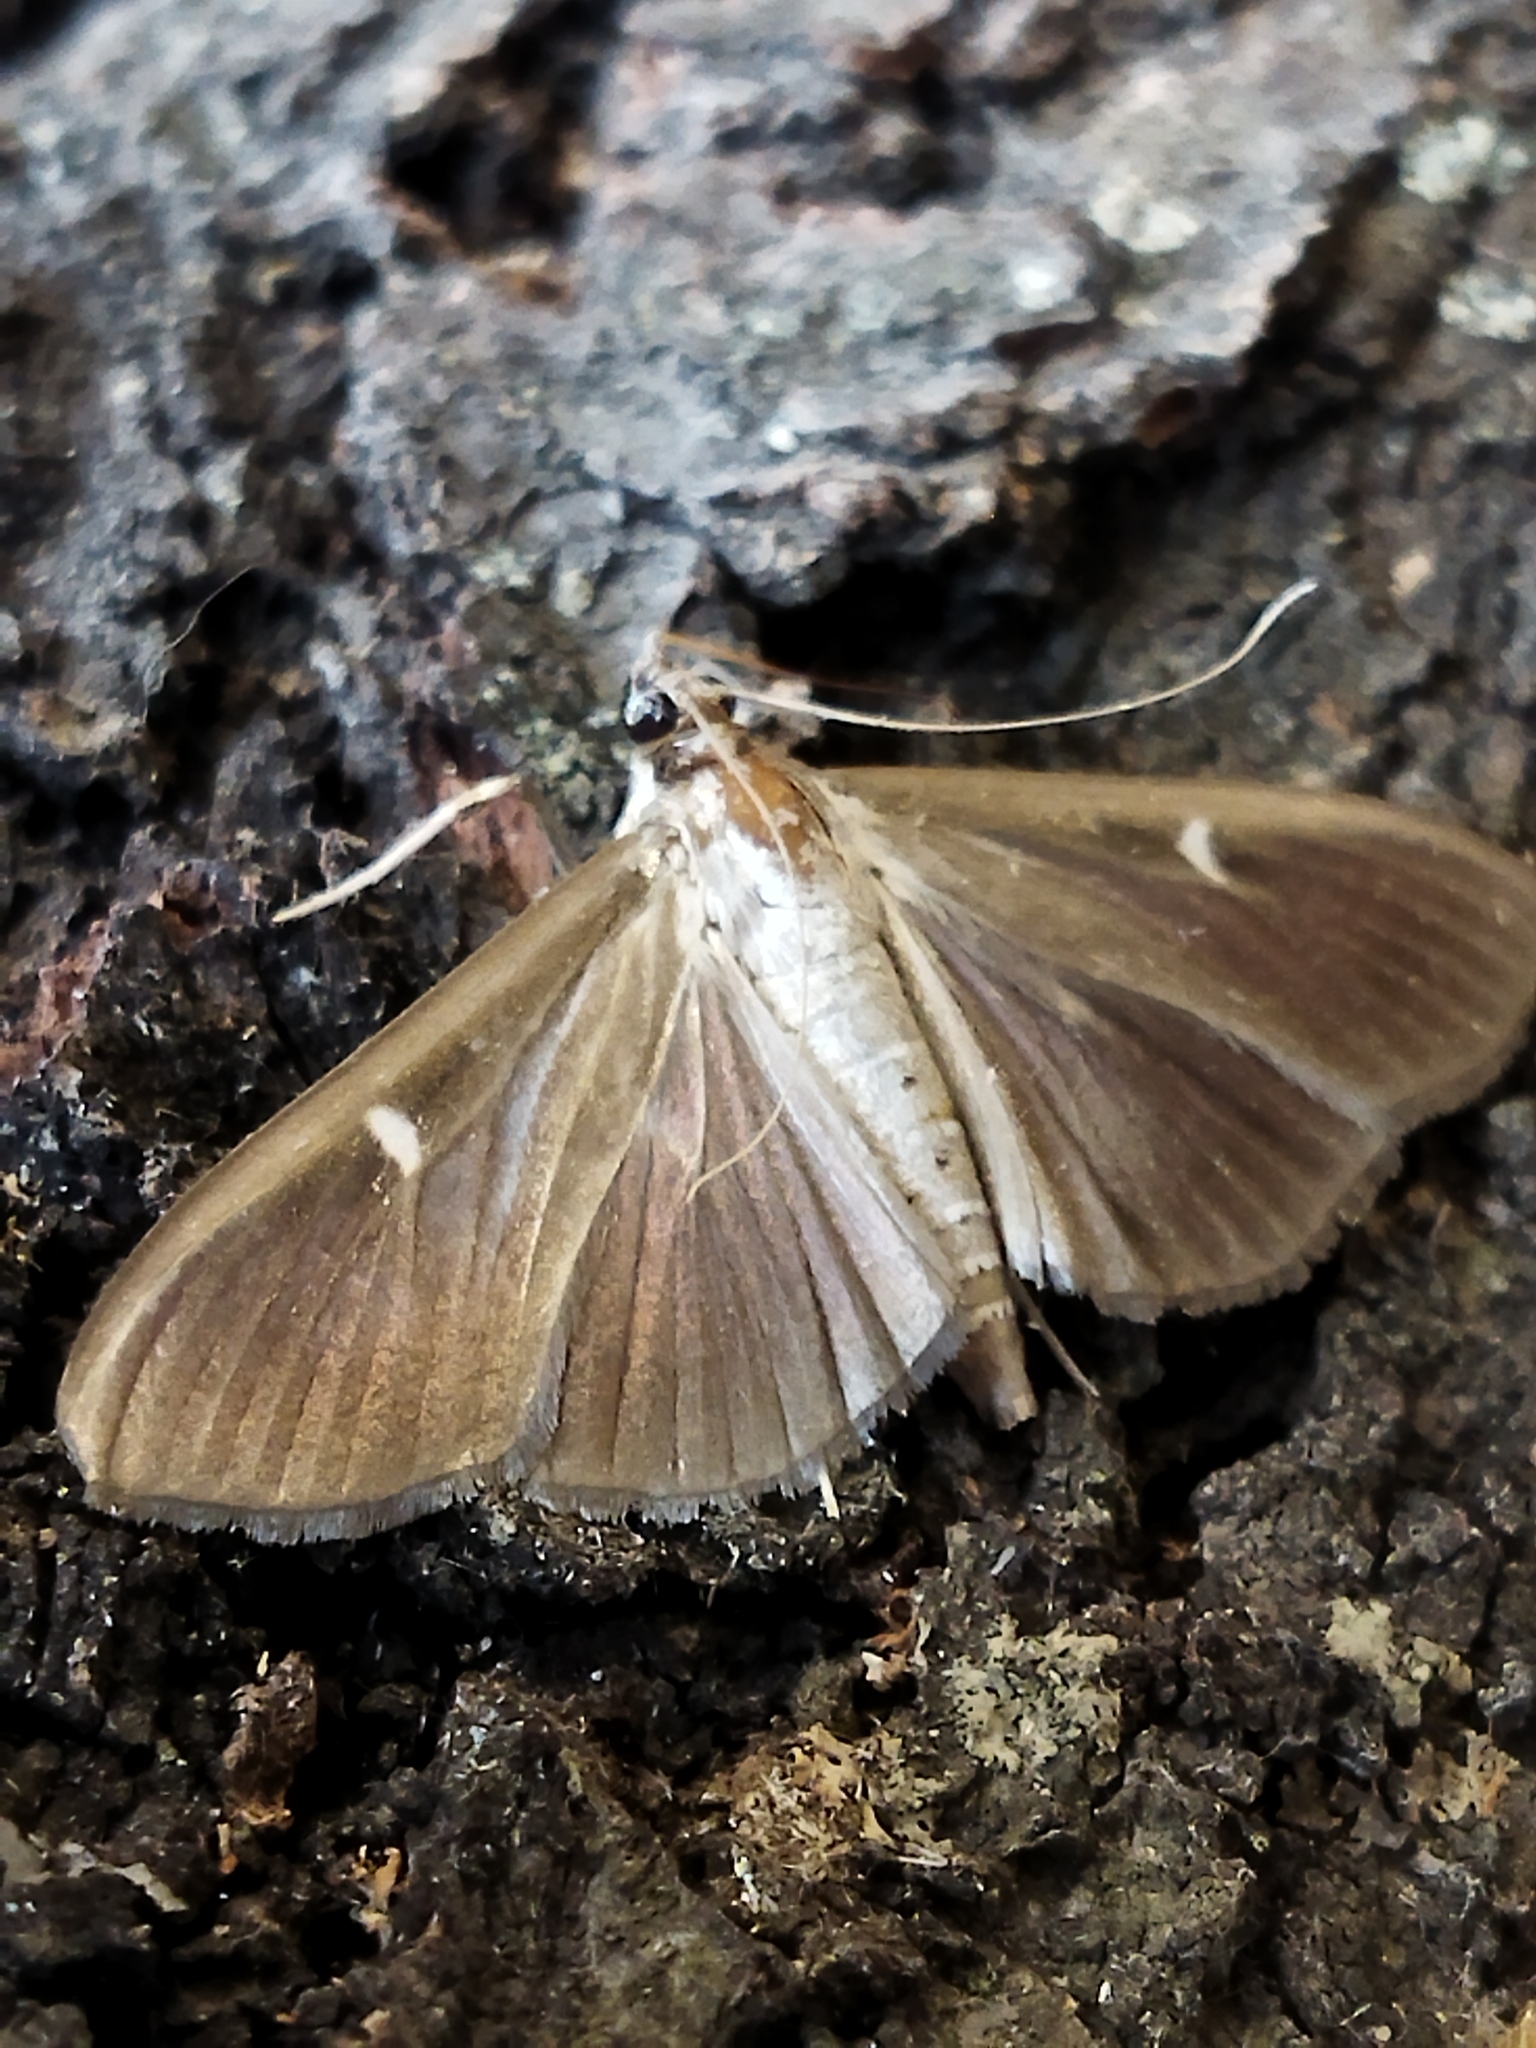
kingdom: Animalia
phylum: Arthropoda
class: Insecta
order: Lepidoptera
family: Crambidae
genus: Cydalima
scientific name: Cydalima perspectalis
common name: Box tree moth
